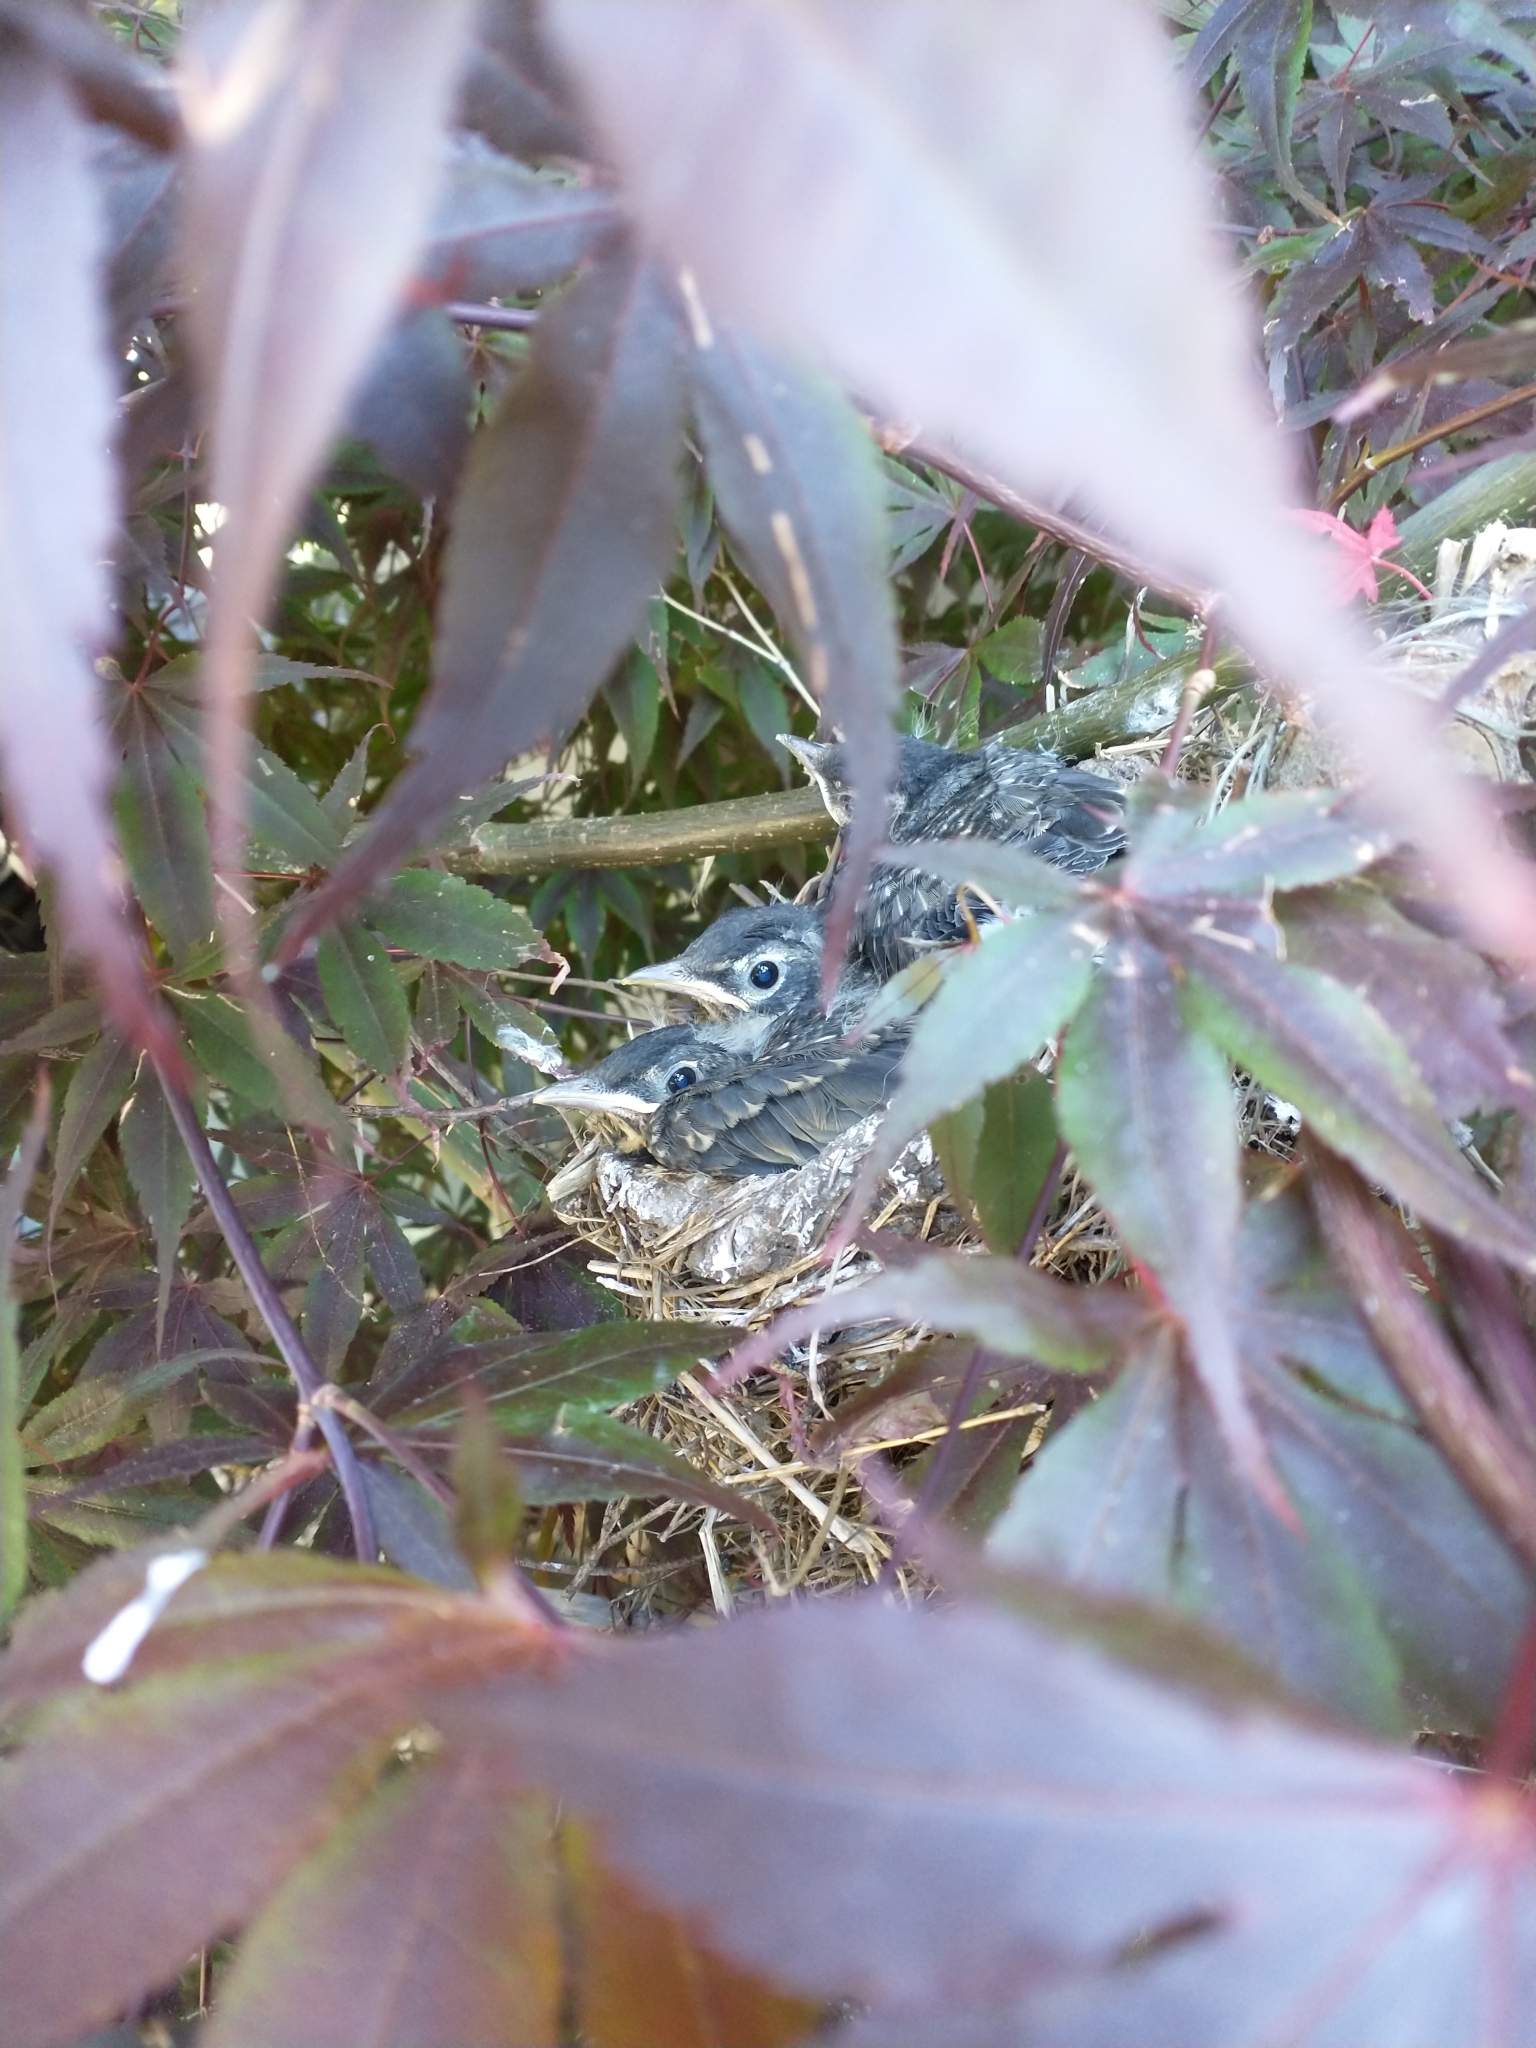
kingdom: Animalia
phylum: Chordata
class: Aves
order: Passeriformes
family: Turdidae
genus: Turdus
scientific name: Turdus migratorius
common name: American robin
